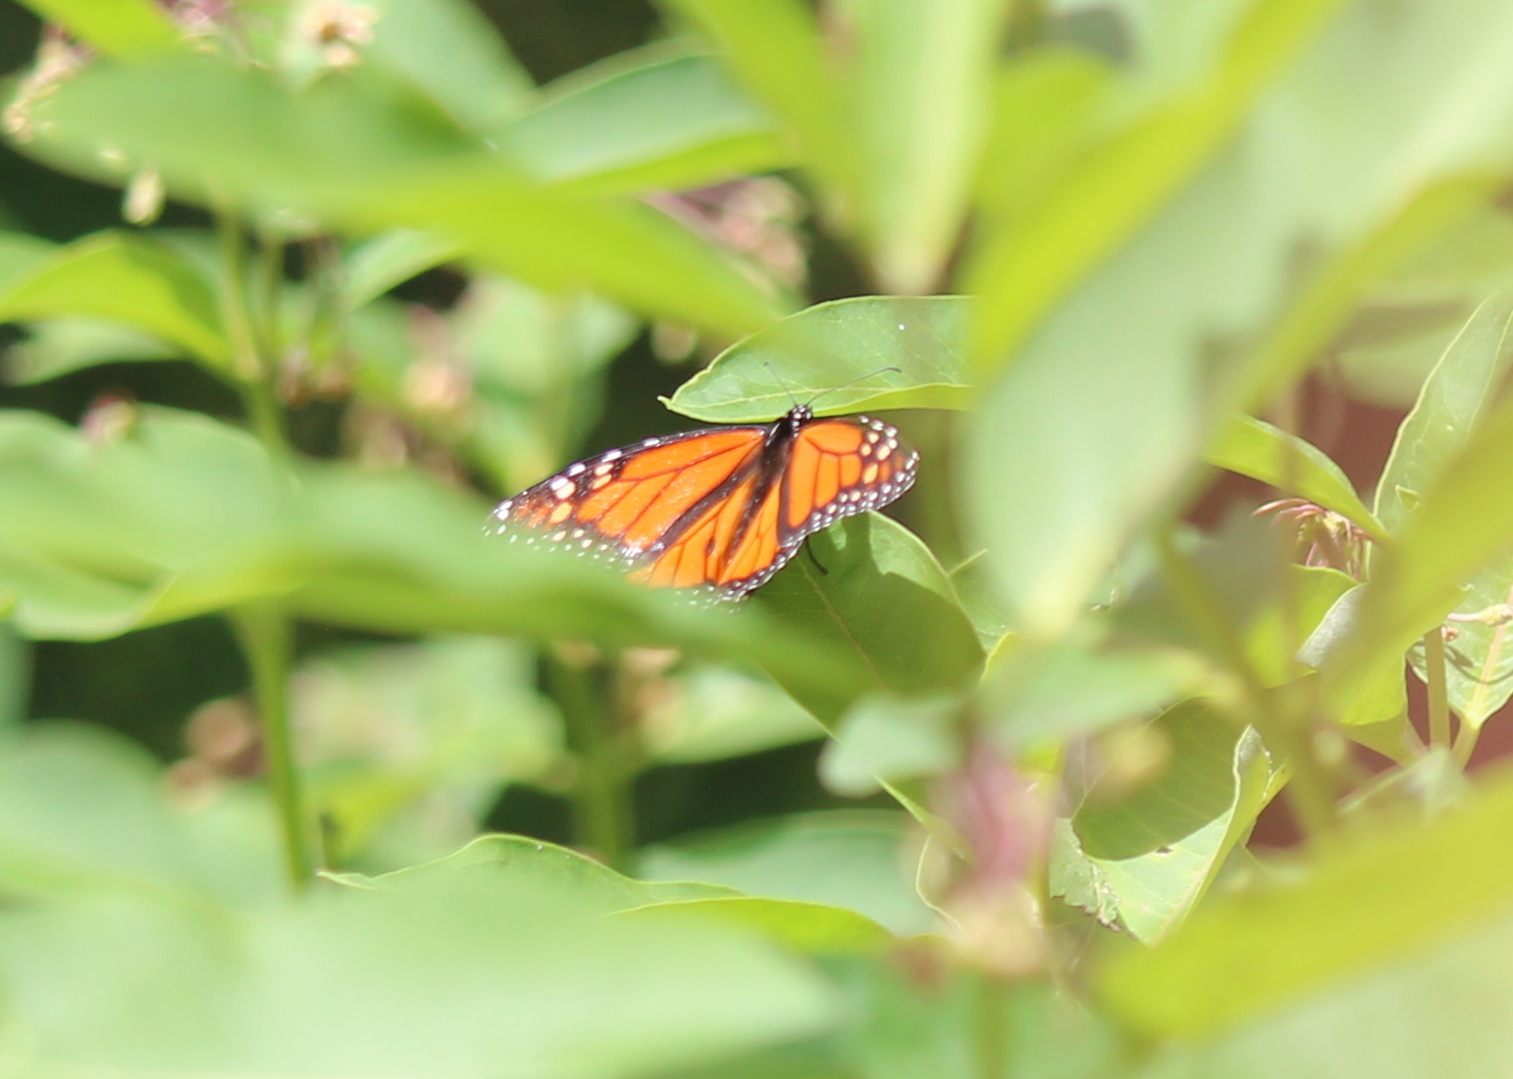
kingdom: Animalia
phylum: Arthropoda
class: Insecta
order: Lepidoptera
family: Nymphalidae
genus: Danaus
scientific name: Danaus plexippus
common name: Monarch
